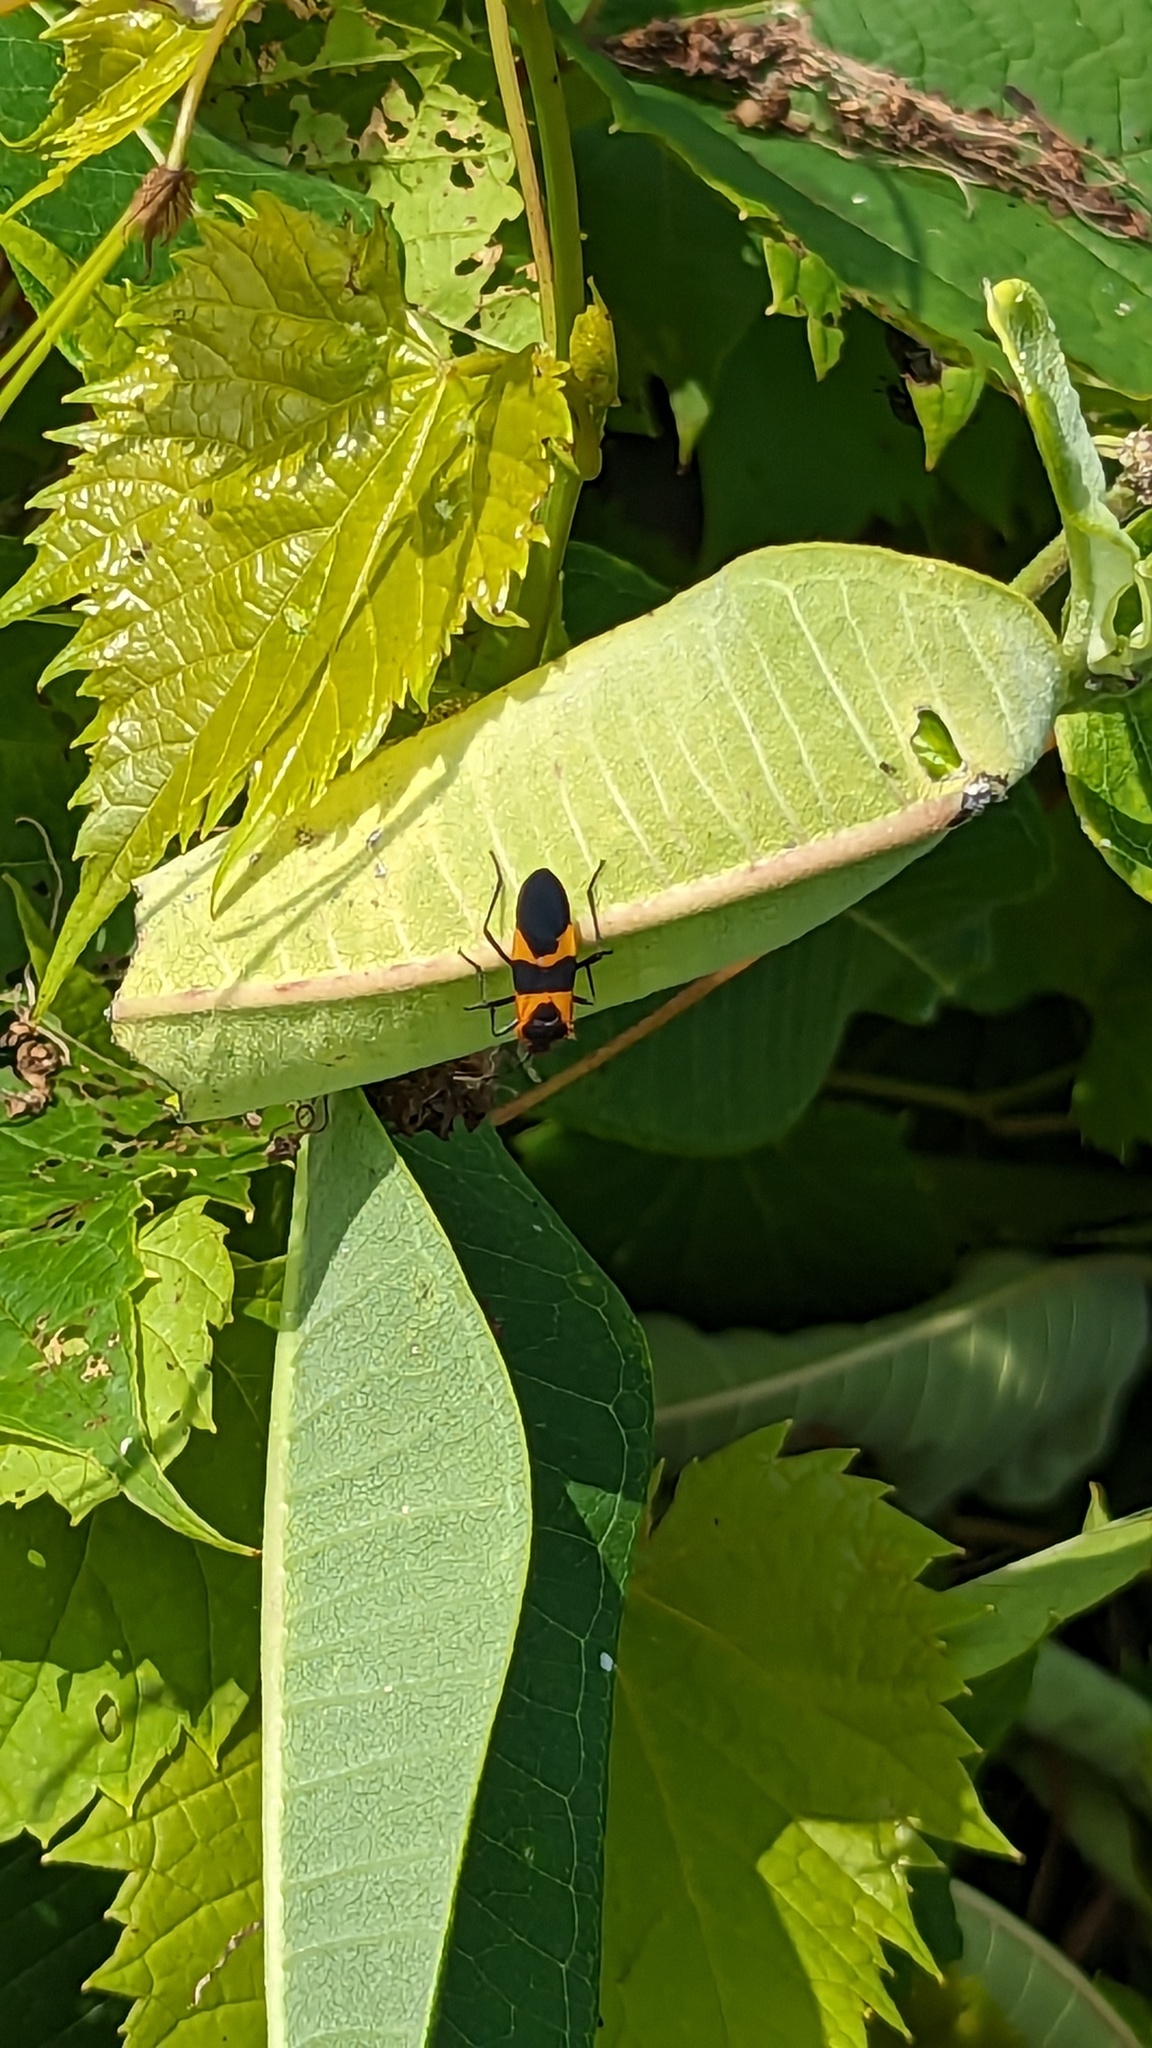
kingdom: Animalia
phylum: Arthropoda
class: Insecta
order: Hemiptera
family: Lygaeidae
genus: Oncopeltus
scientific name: Oncopeltus fasciatus
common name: Large milkweed bug
